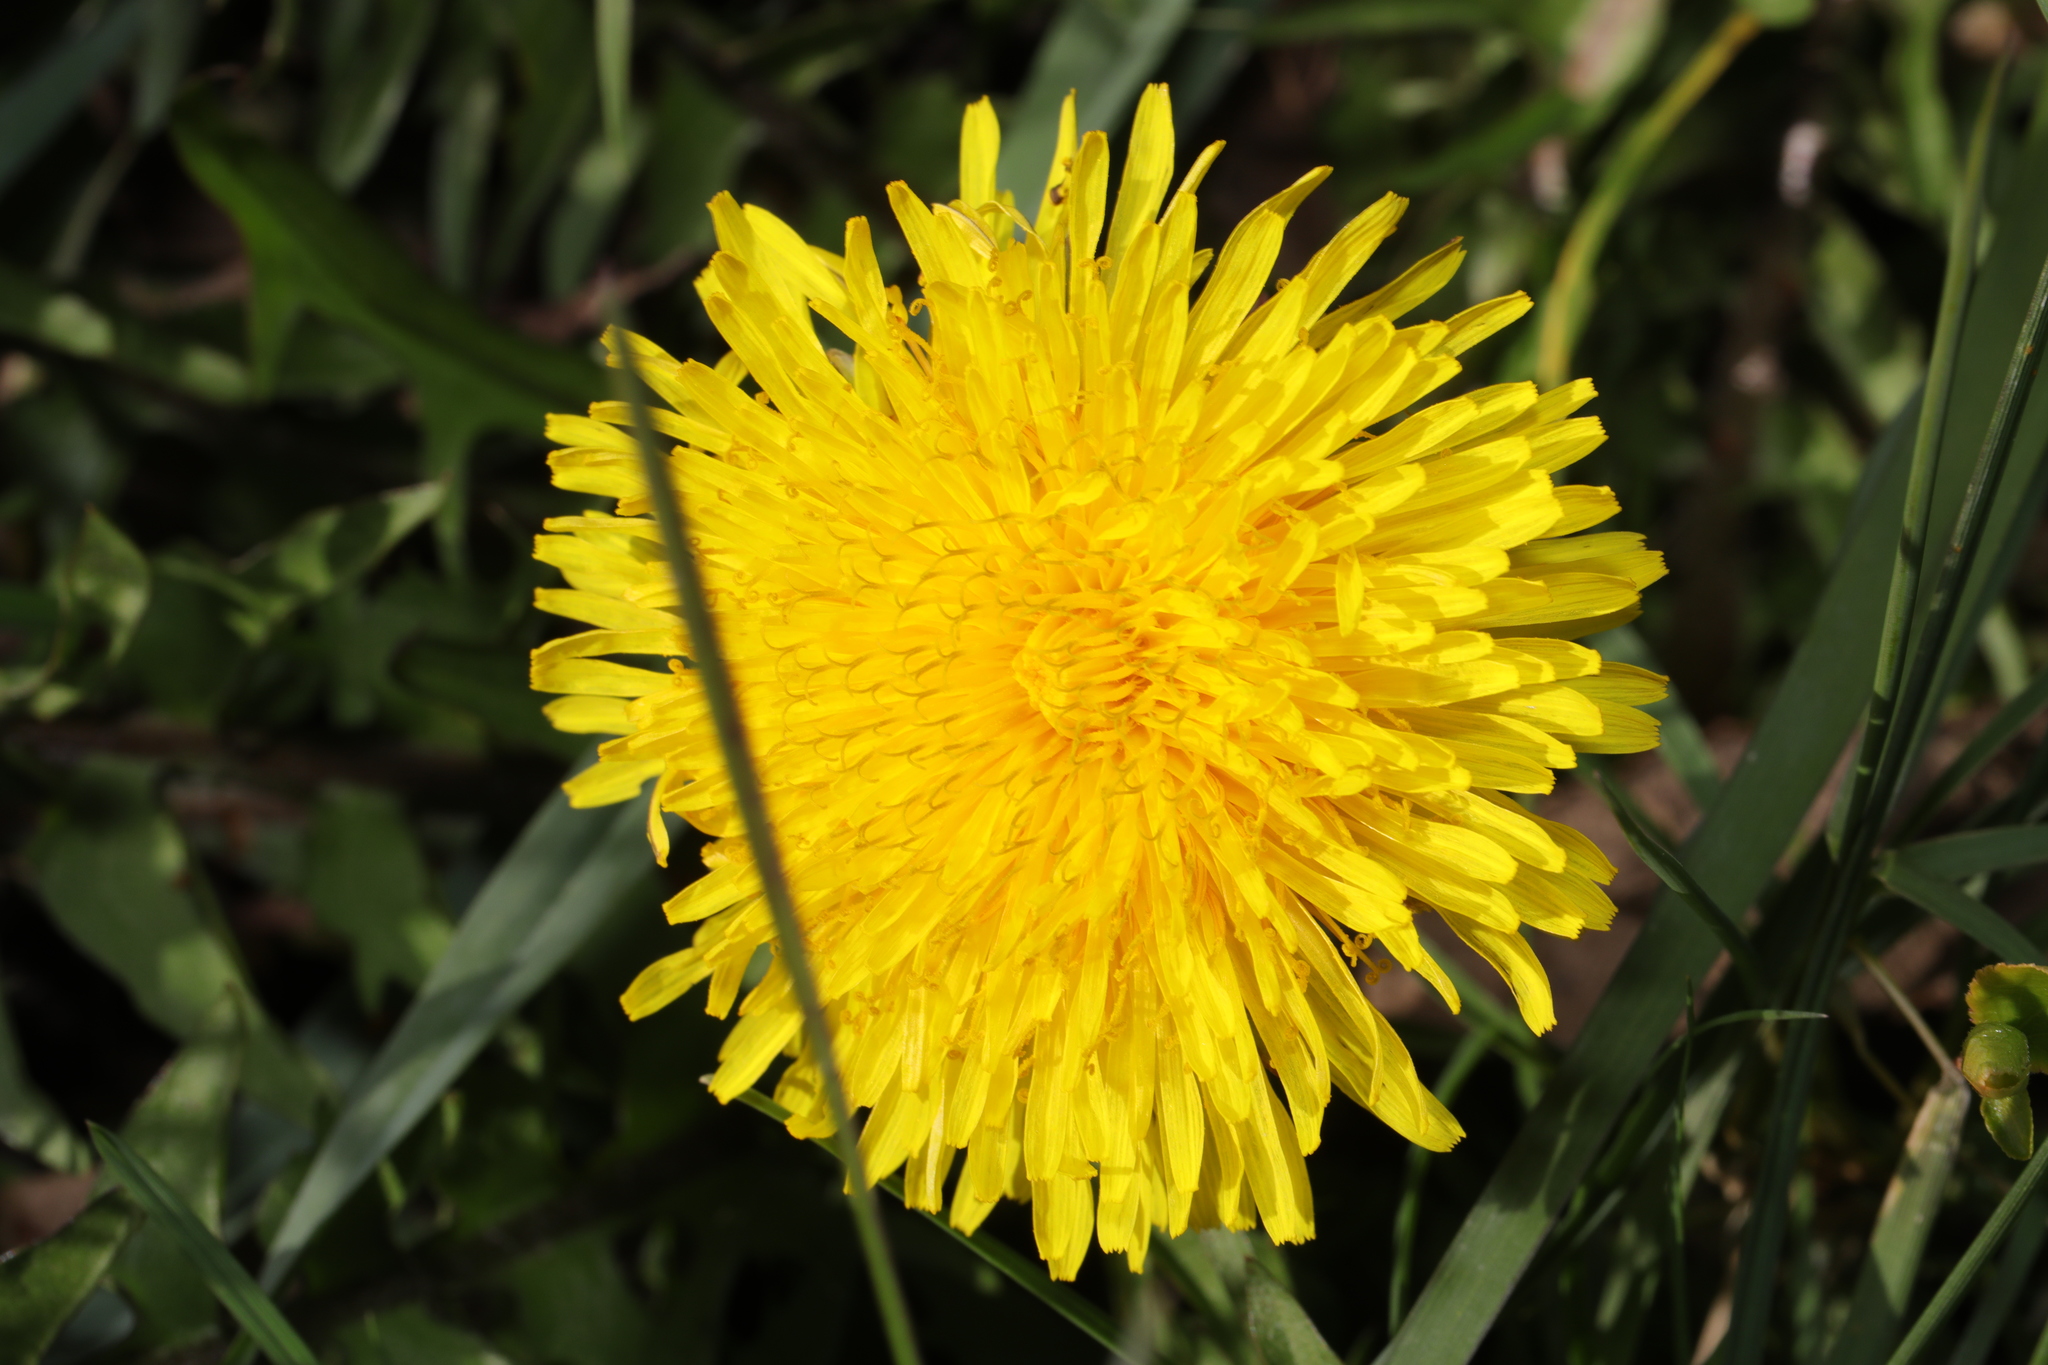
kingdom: Plantae
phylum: Tracheophyta
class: Magnoliopsida
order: Asterales
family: Asteraceae
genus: Taraxacum
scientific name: Taraxacum officinale
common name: Common dandelion
